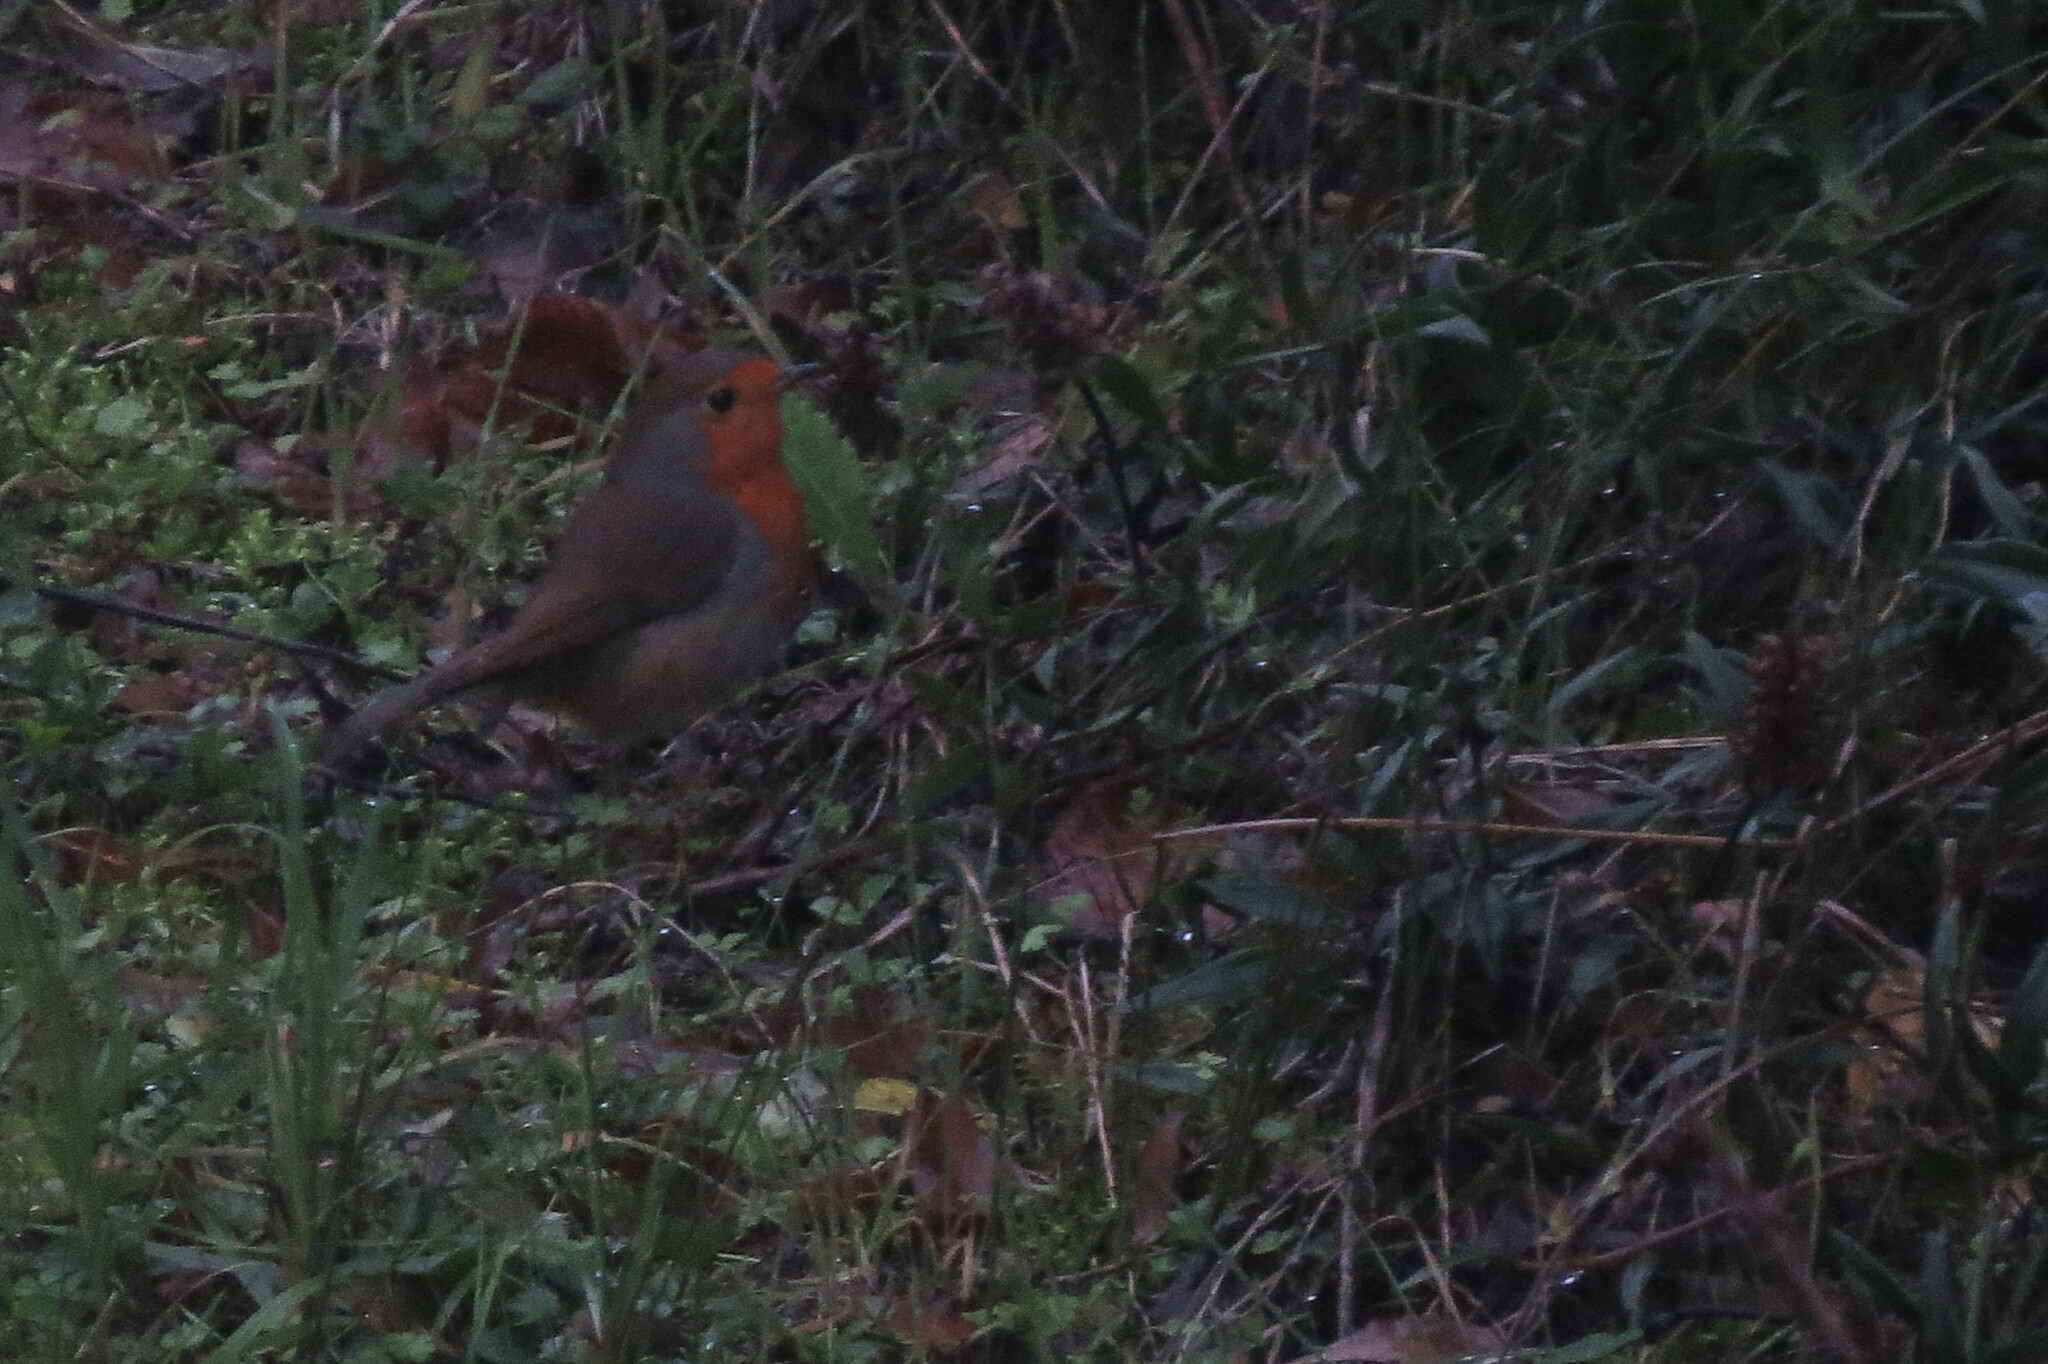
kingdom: Animalia
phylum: Chordata
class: Aves
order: Passeriformes
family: Muscicapidae
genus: Erithacus
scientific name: Erithacus rubecula
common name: European robin
